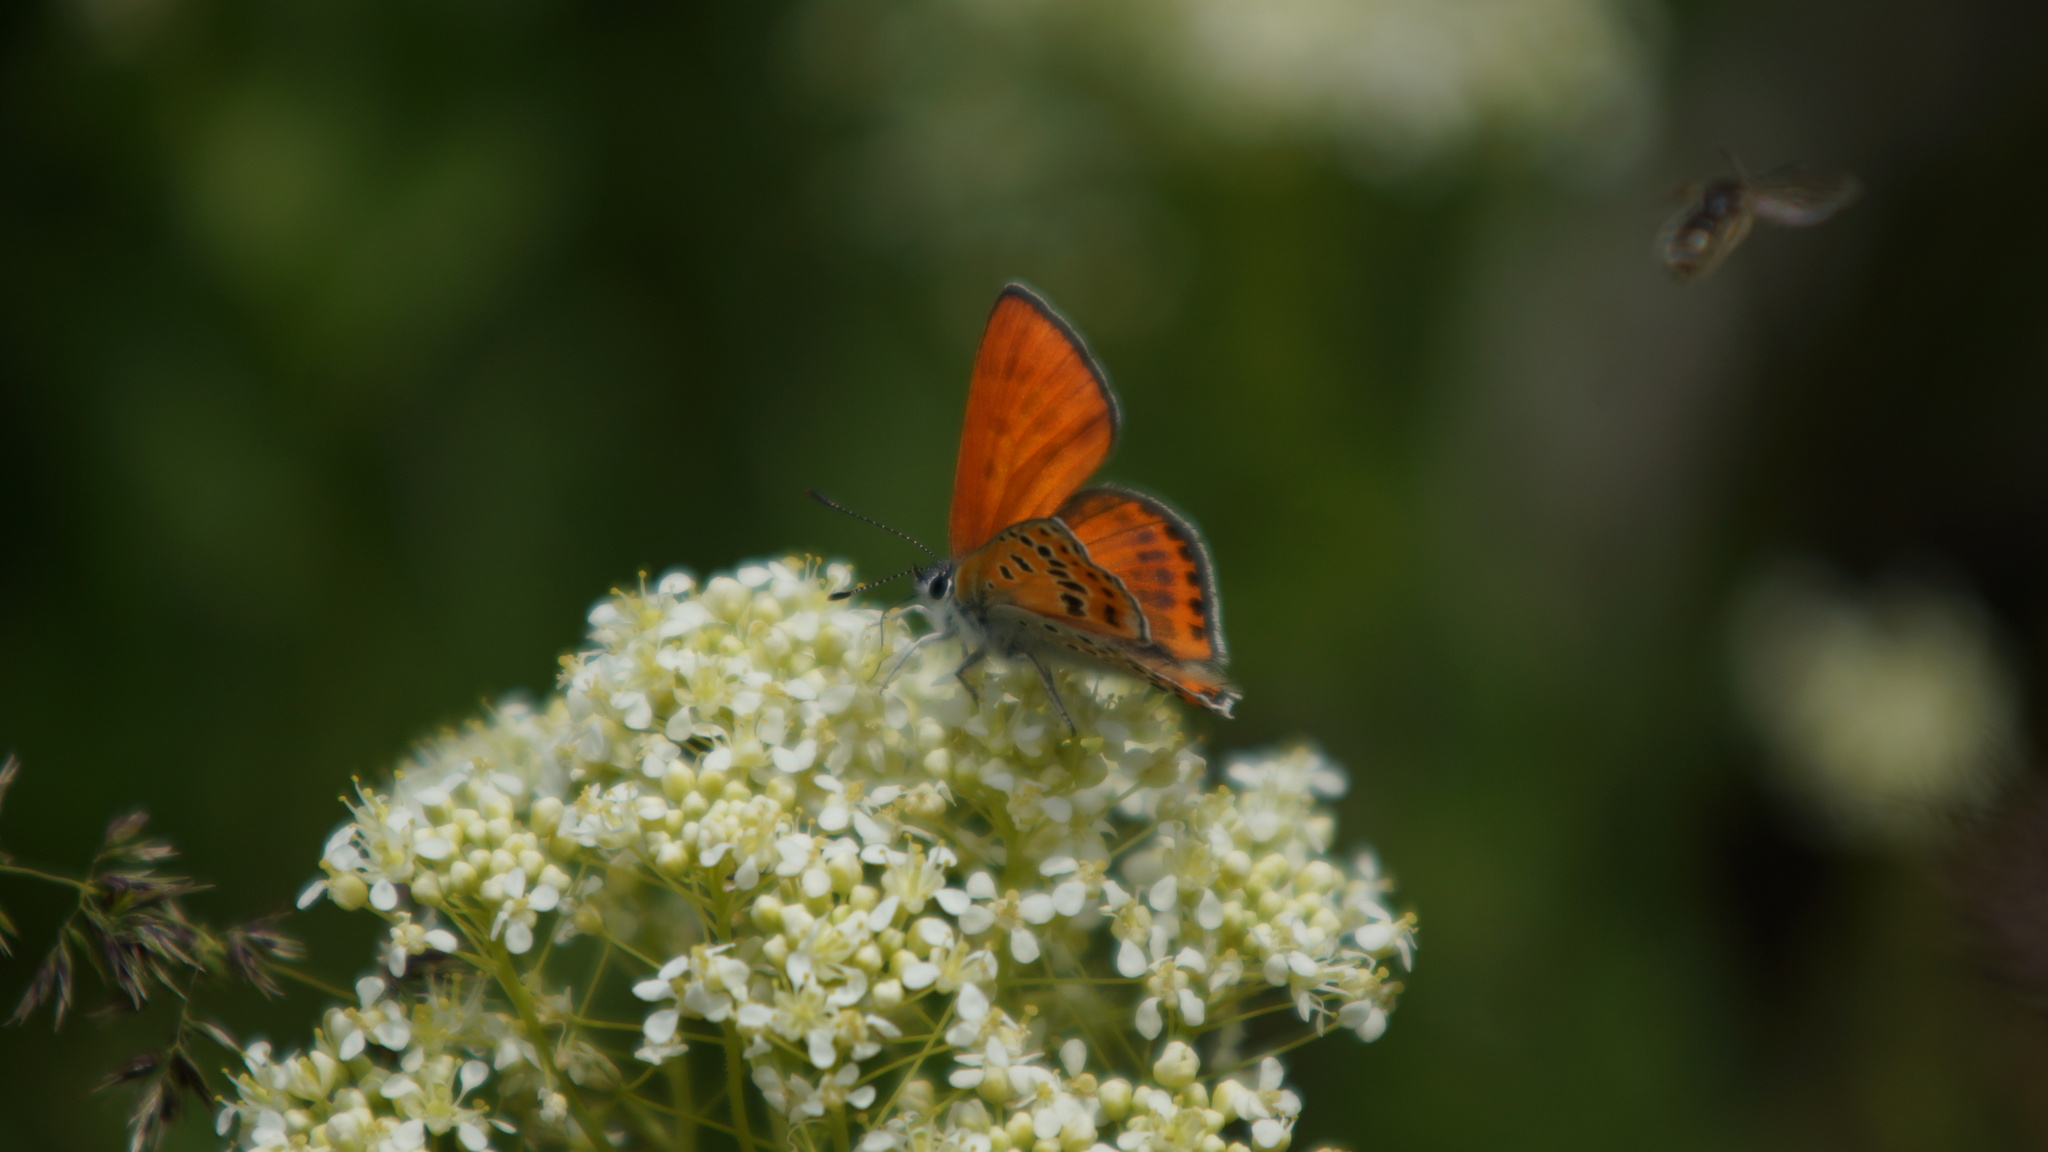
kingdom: Animalia
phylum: Arthropoda
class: Insecta
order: Lepidoptera
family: Lycaenidae
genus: Thersamonia
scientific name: Thersamonia thersamon
